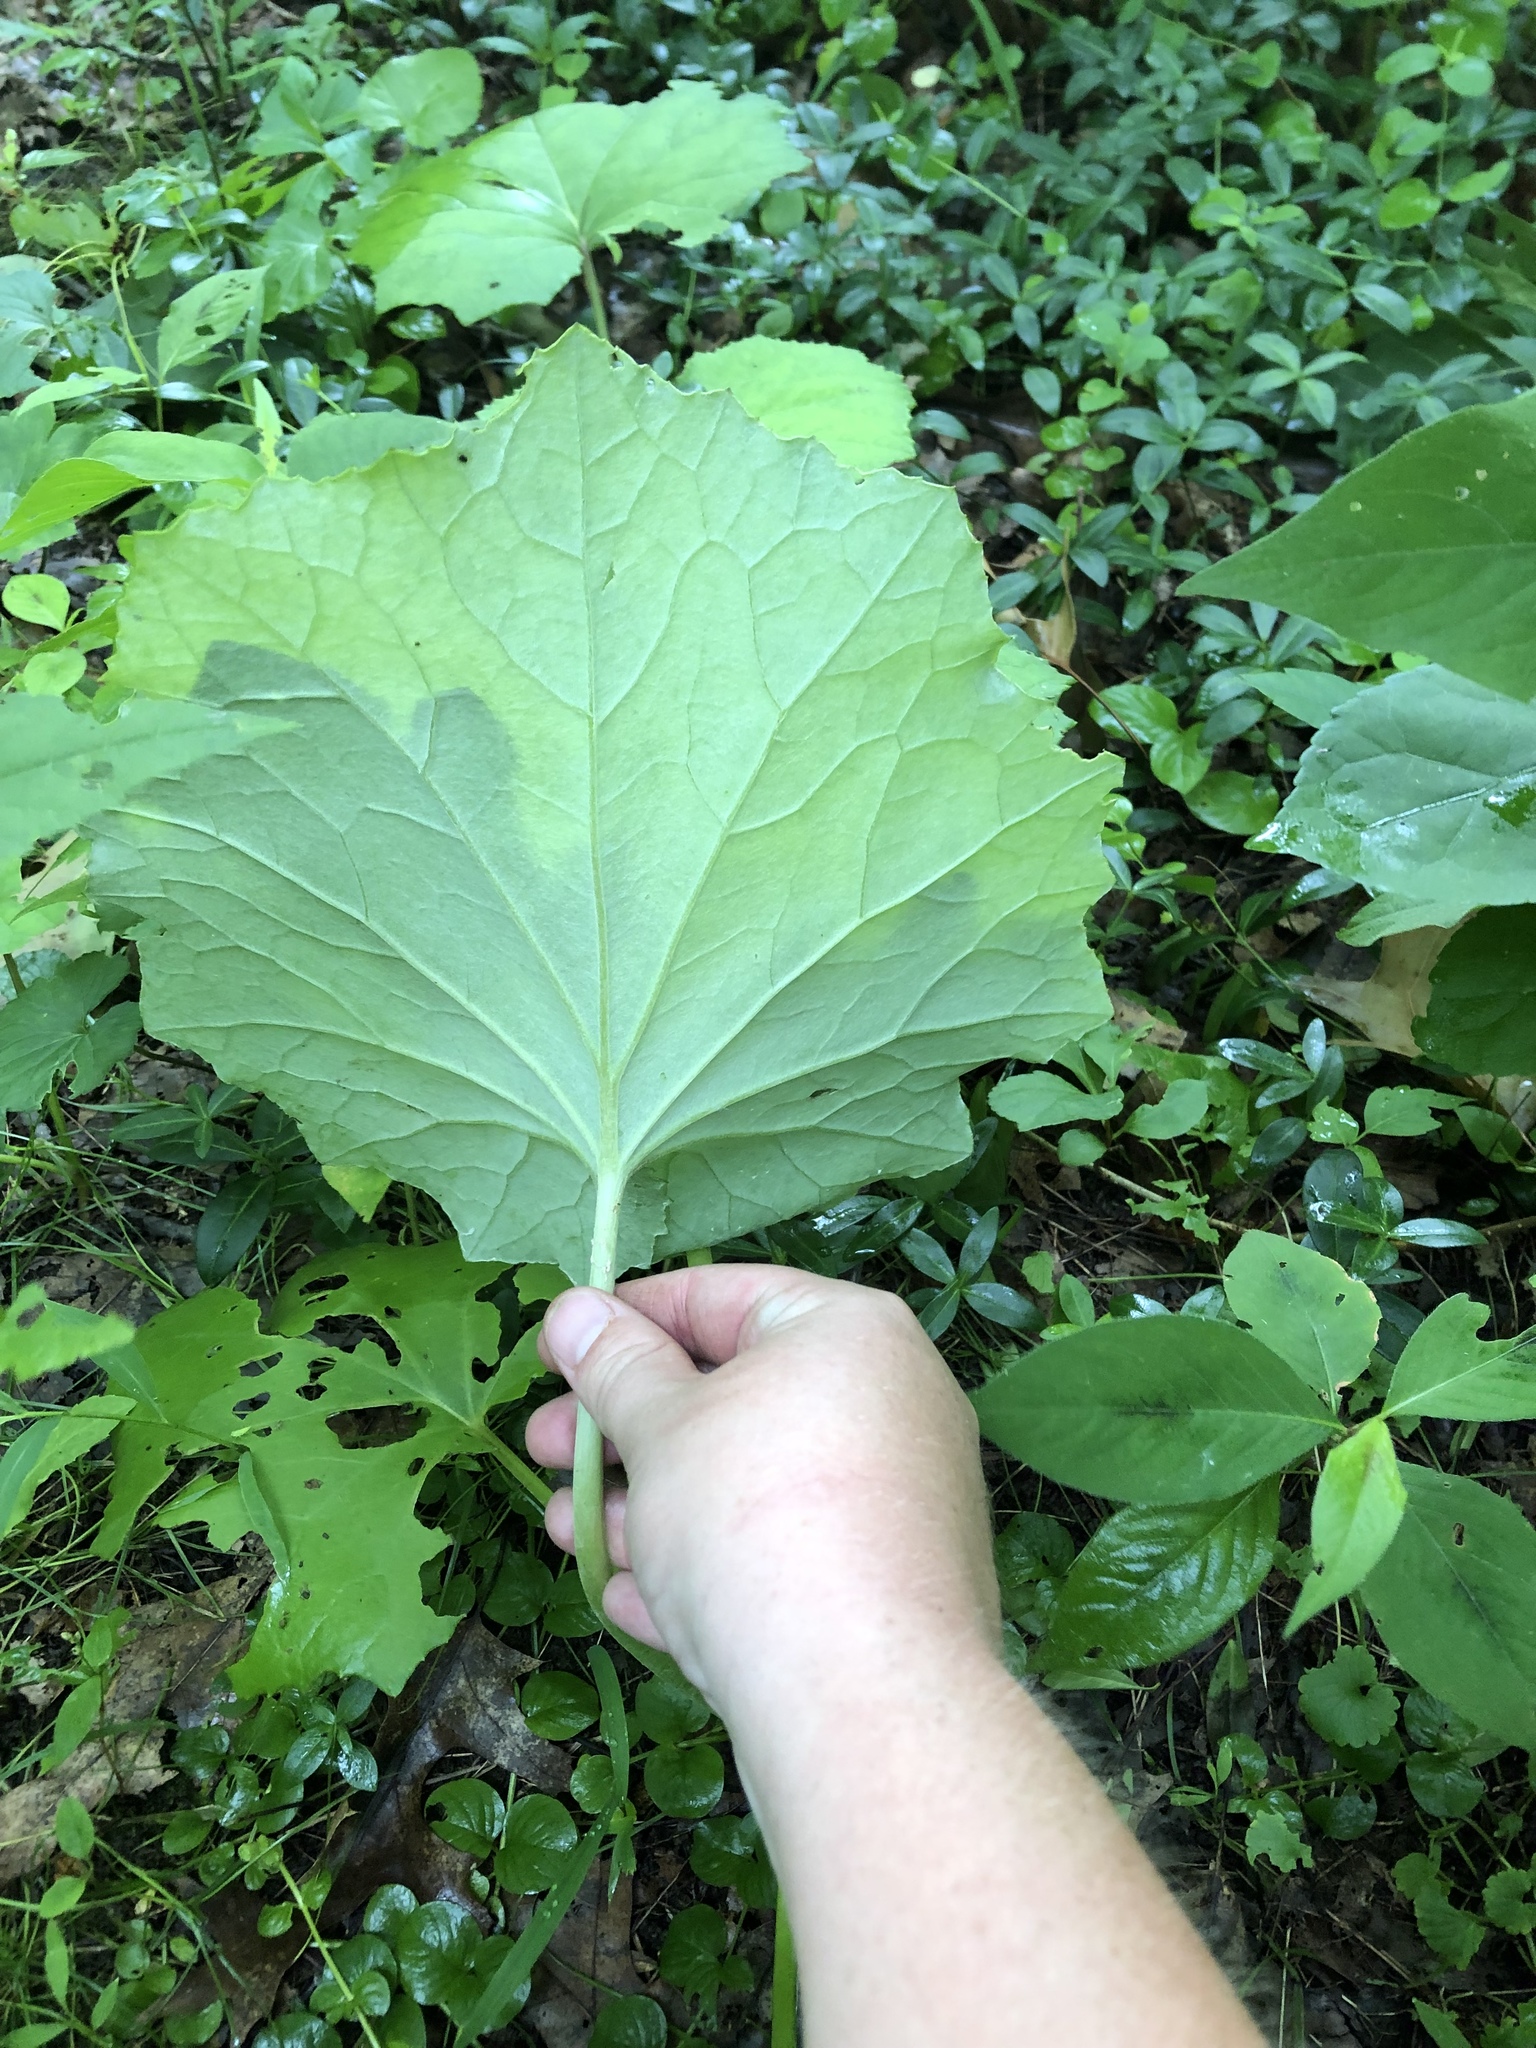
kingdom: Plantae
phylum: Tracheophyta
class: Magnoliopsida
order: Asterales
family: Asteraceae
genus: Tussilago
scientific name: Tussilago farfara
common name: Coltsfoot
